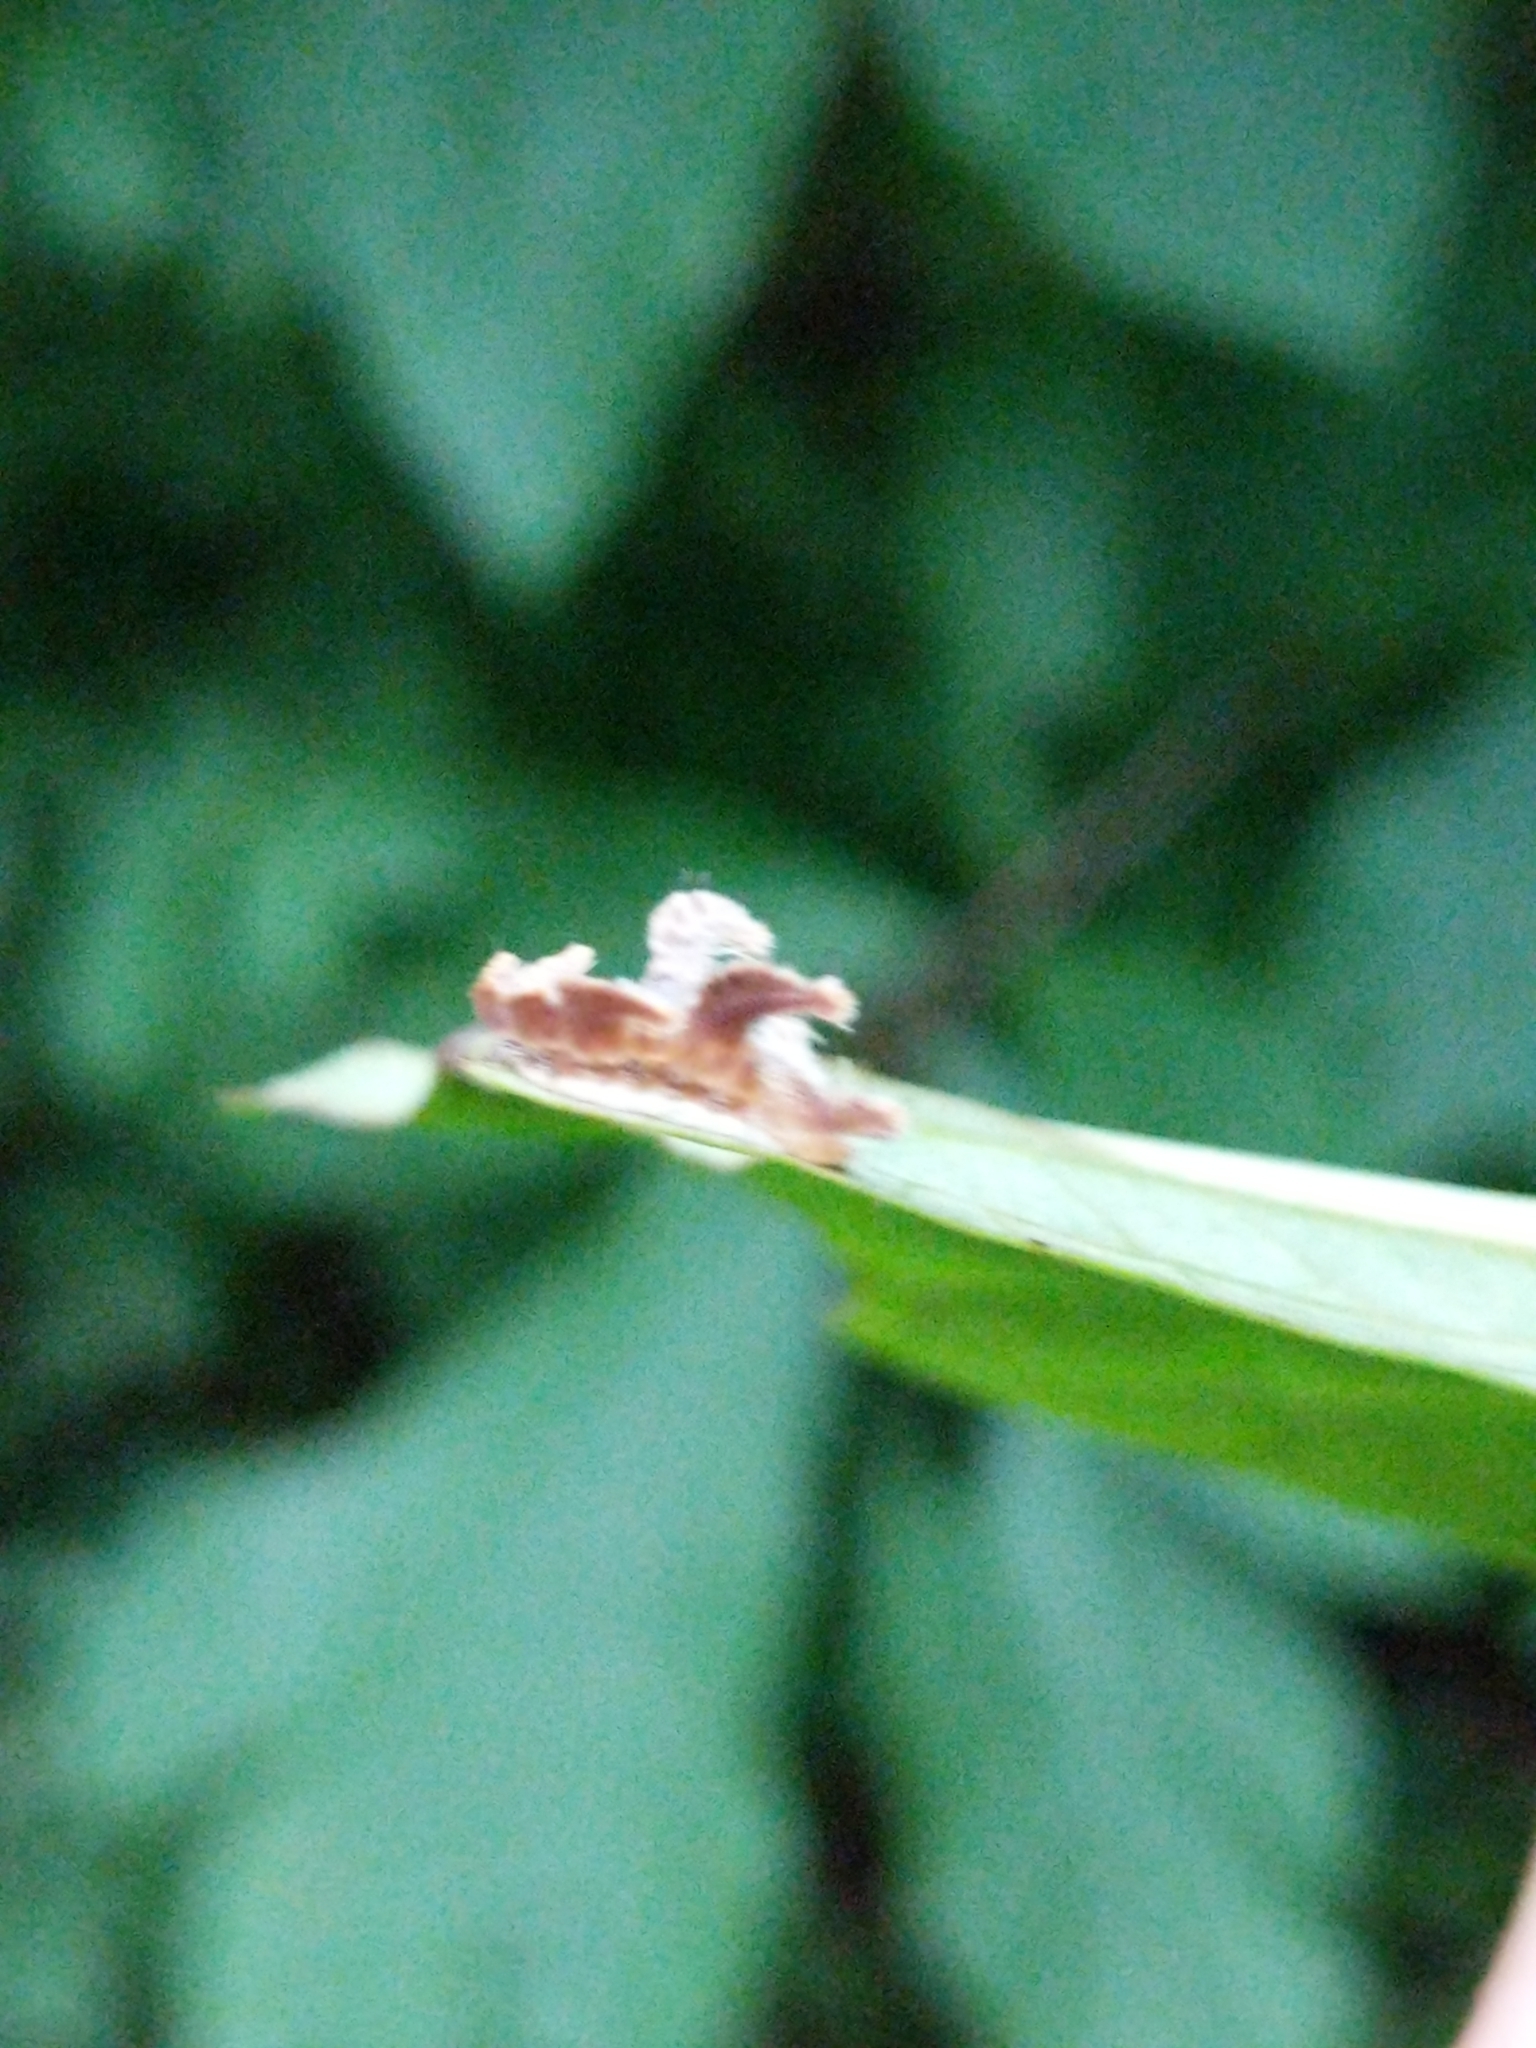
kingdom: Animalia
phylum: Arthropoda
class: Insecta
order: Lepidoptera
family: Limacodidae
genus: Phobetron
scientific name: Phobetron pithecium
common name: Hag moth
